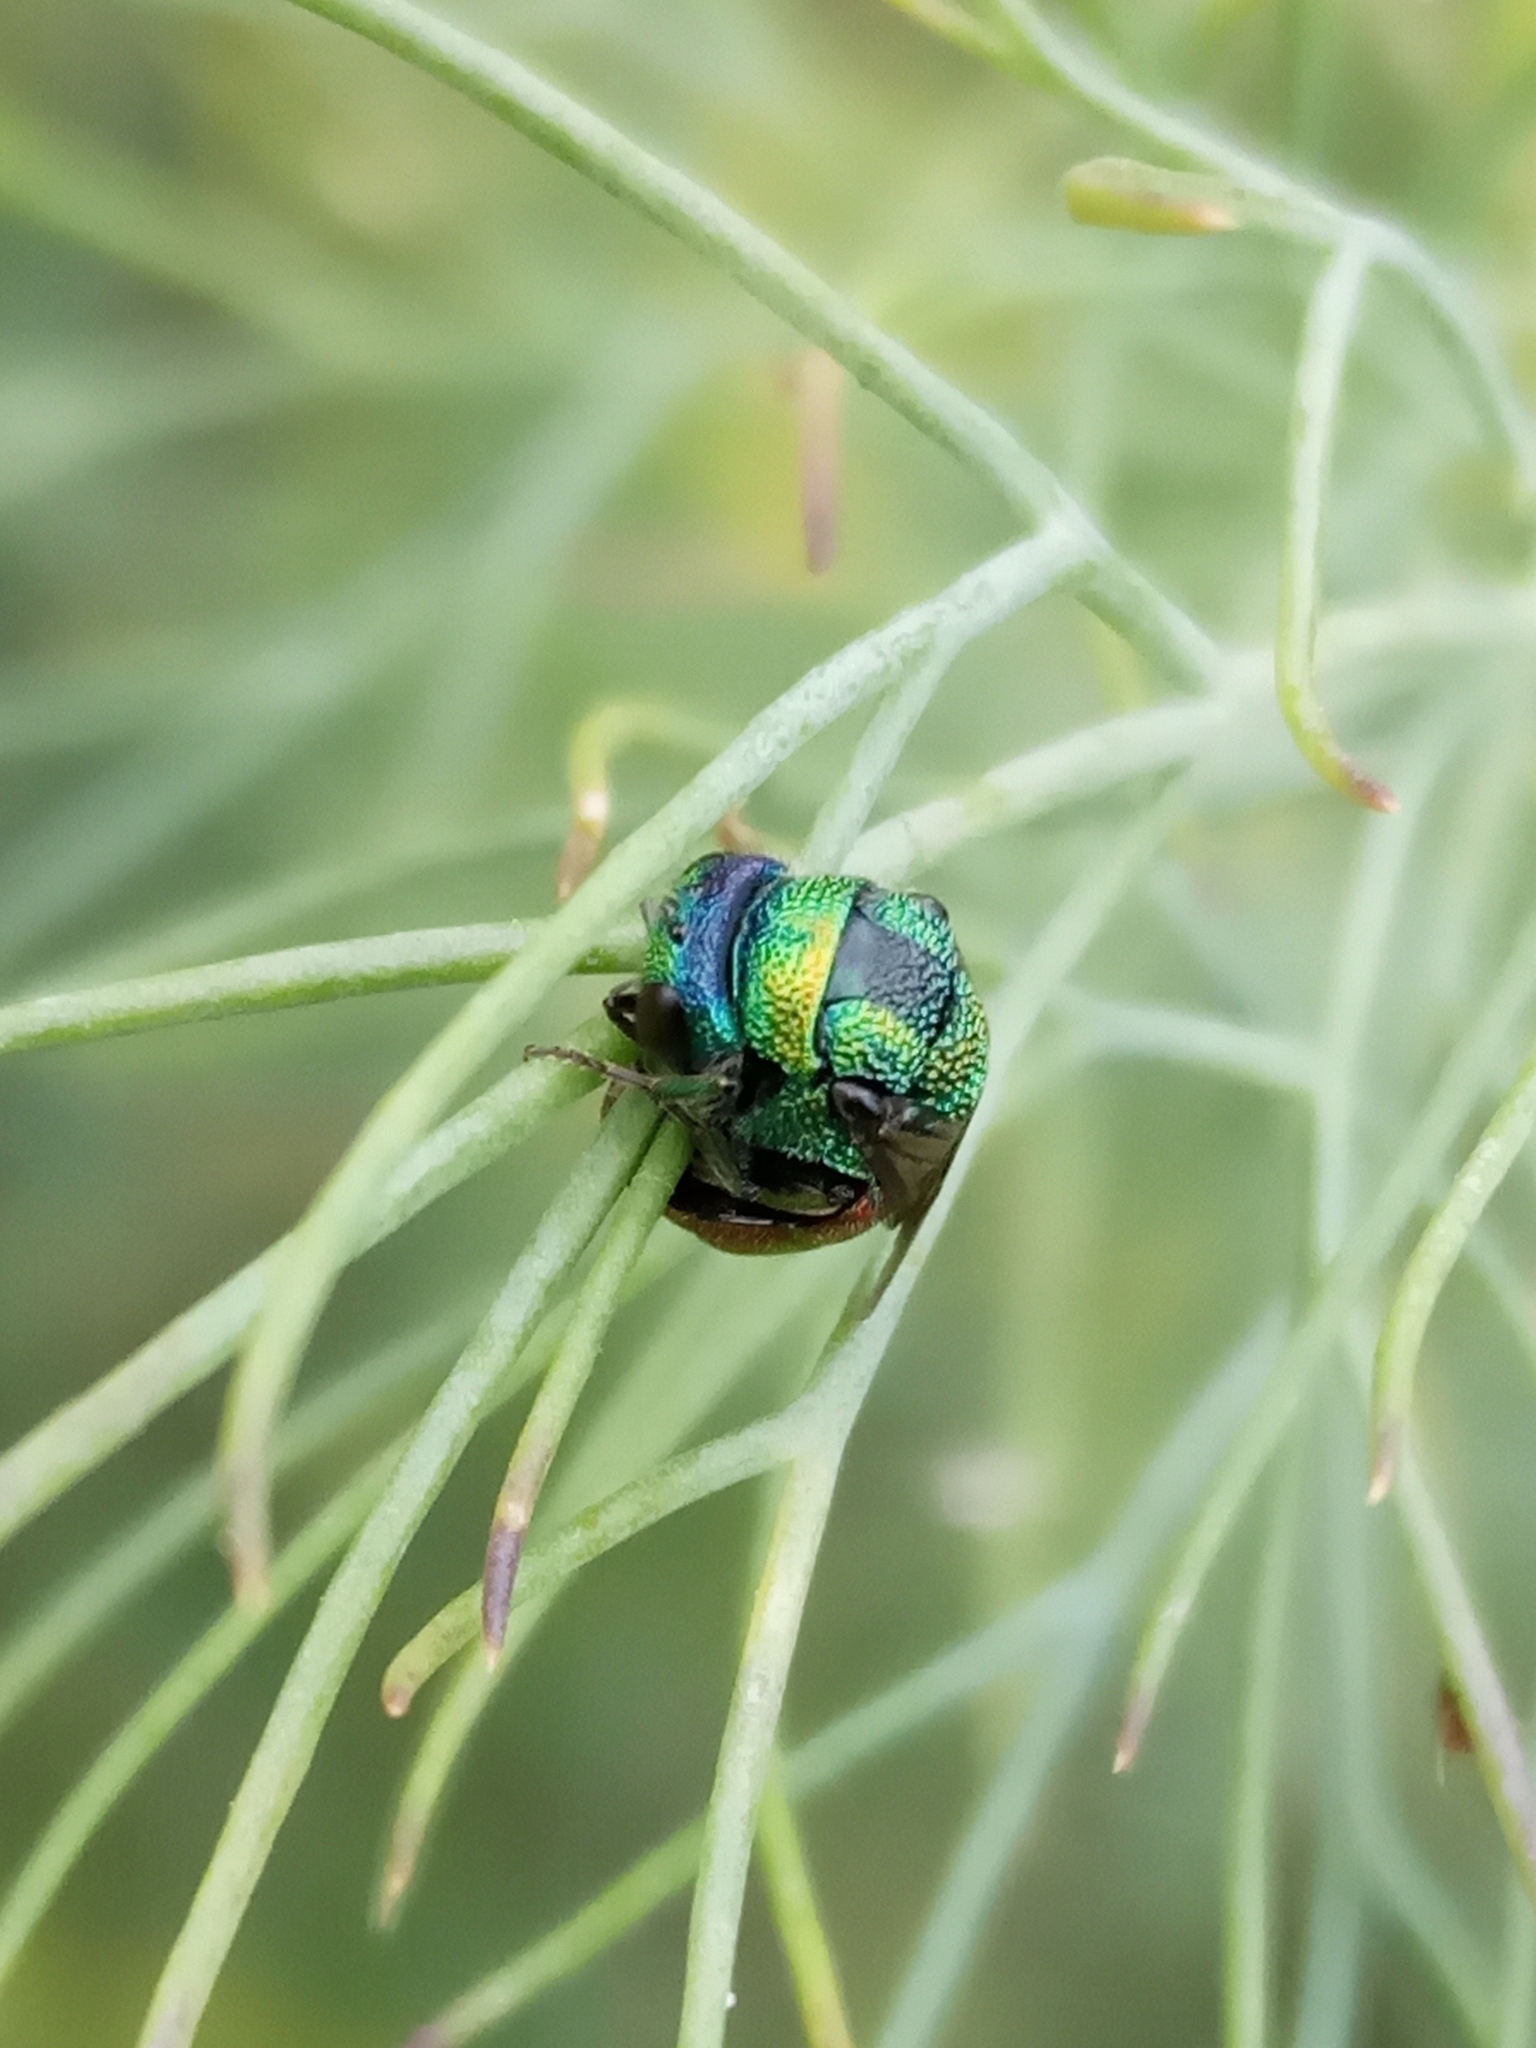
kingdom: Animalia
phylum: Arthropoda
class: Insecta
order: Hymenoptera
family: Chrysididae
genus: Holopyga
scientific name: Holopyga
